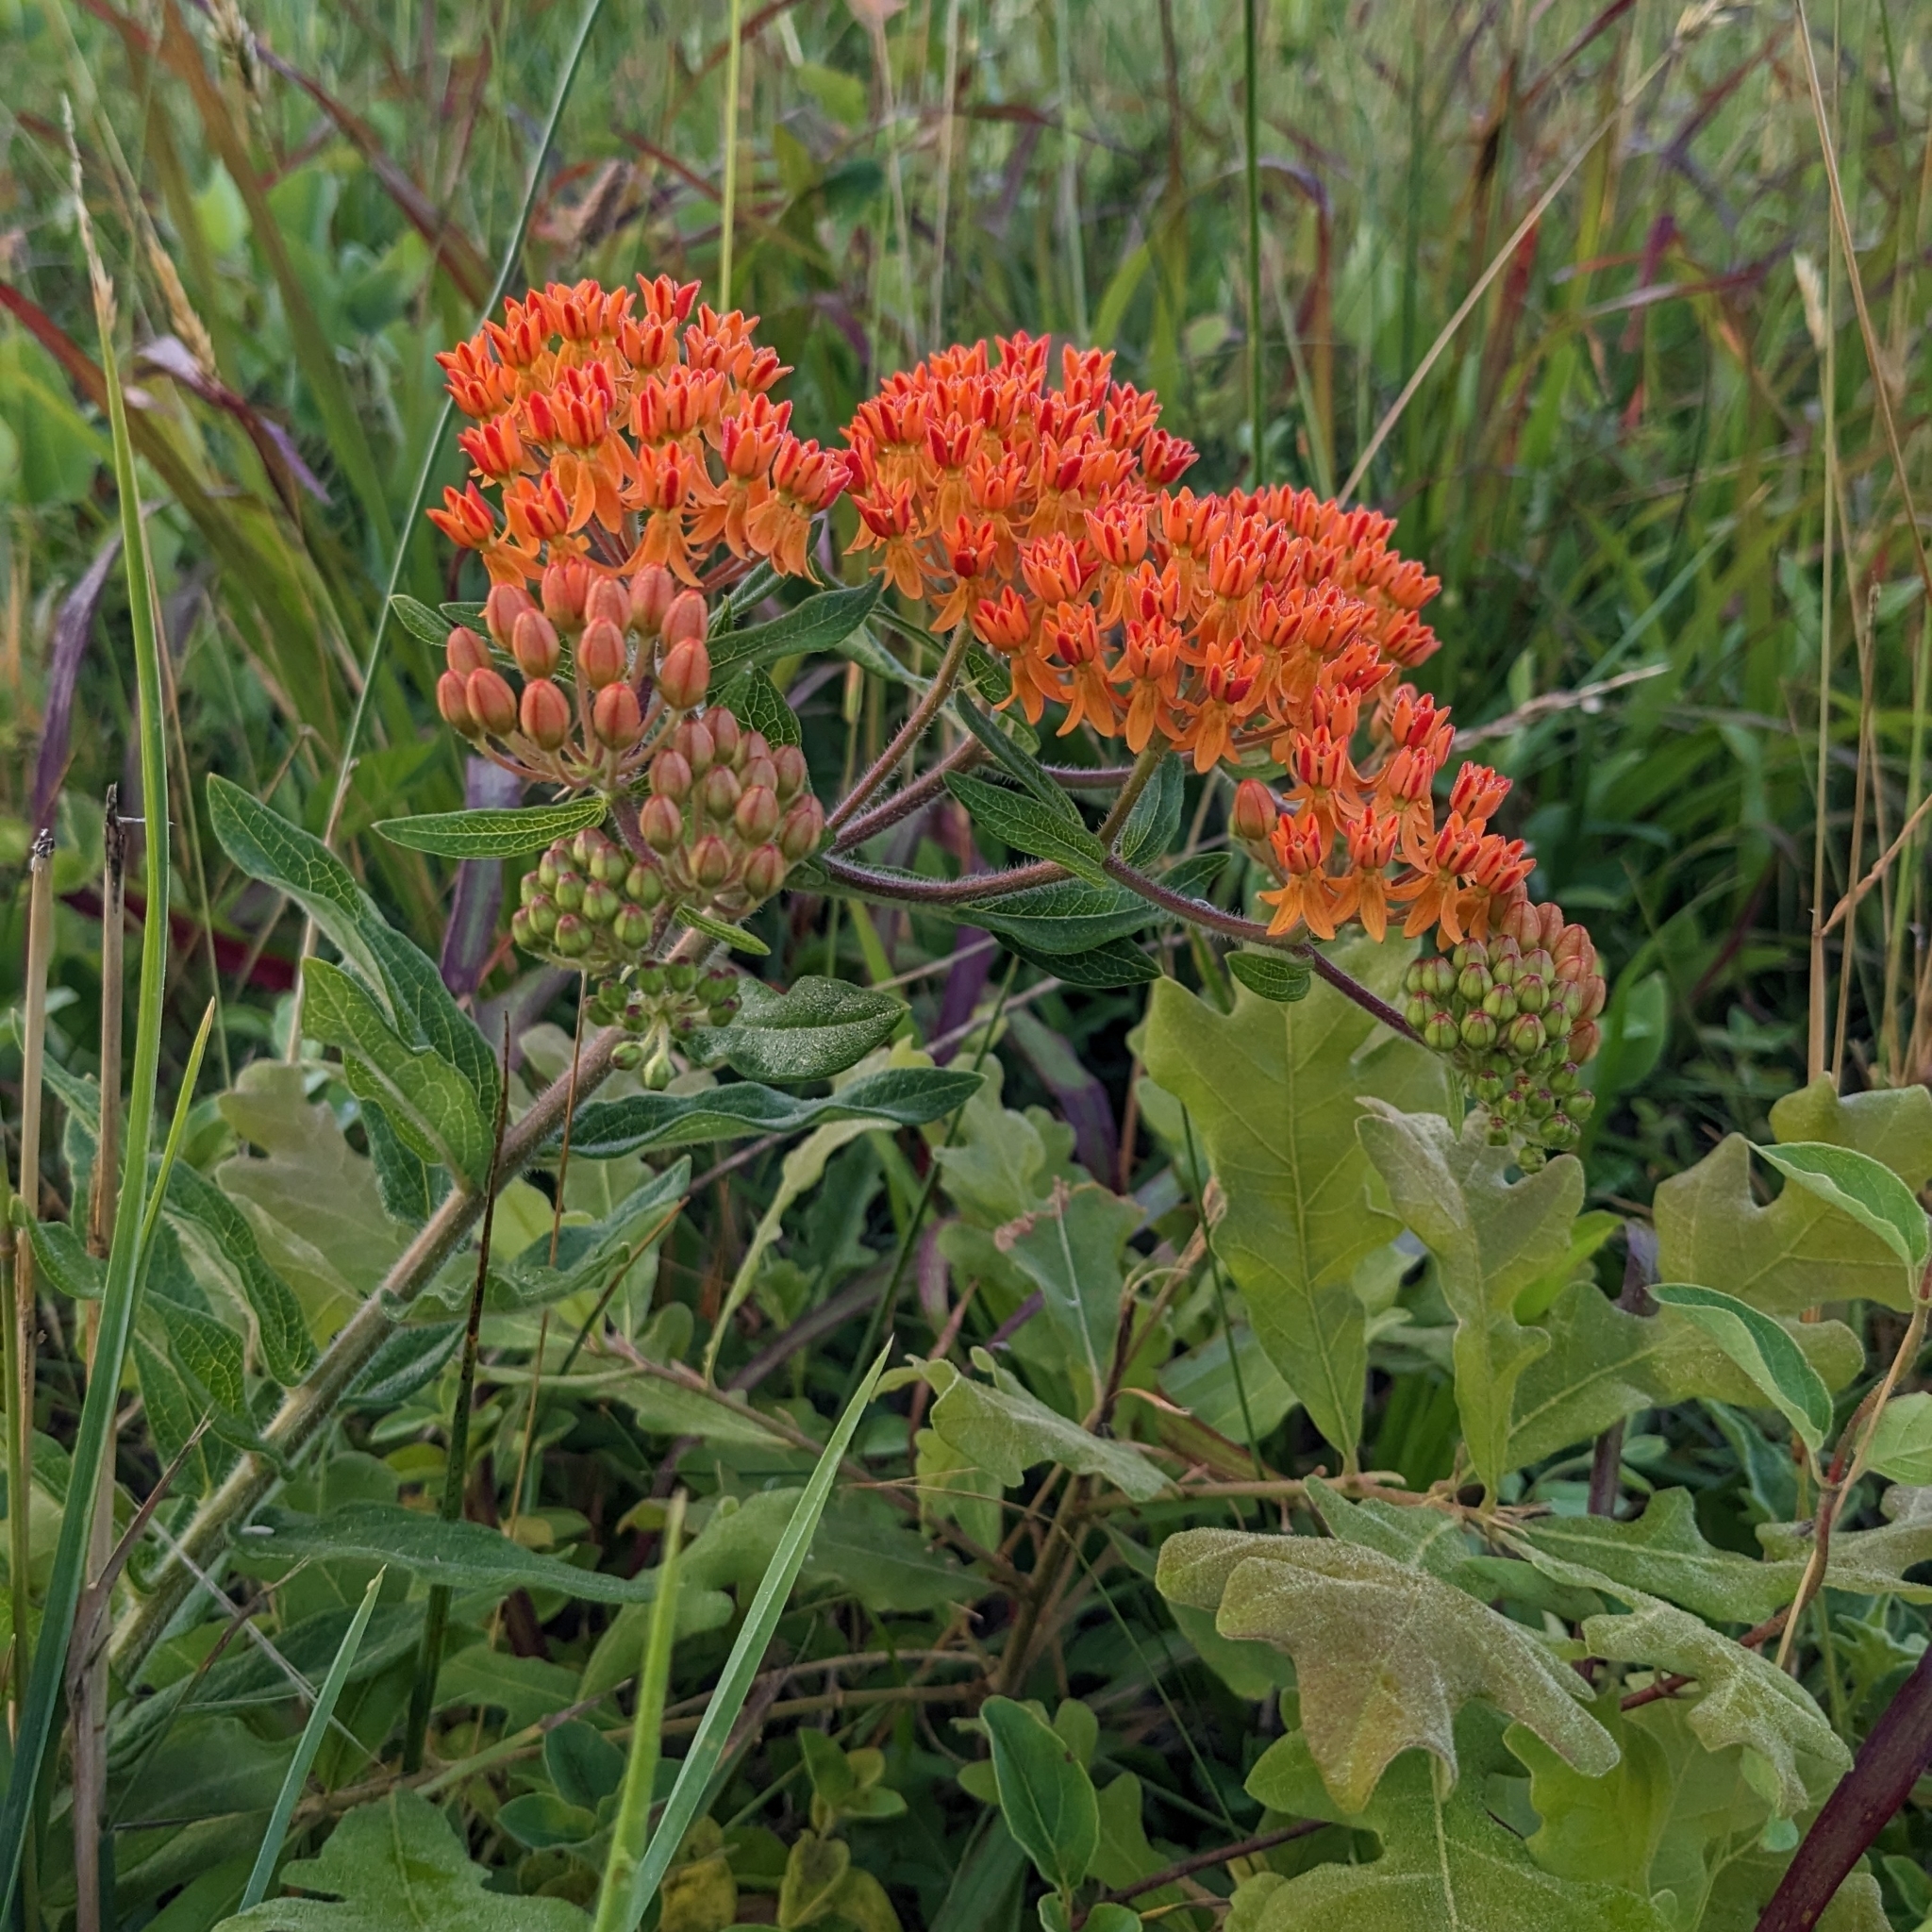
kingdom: Plantae
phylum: Tracheophyta
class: Magnoliopsida
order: Gentianales
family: Apocynaceae
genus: Asclepias
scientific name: Asclepias tuberosa
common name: Butterfly milkweed
